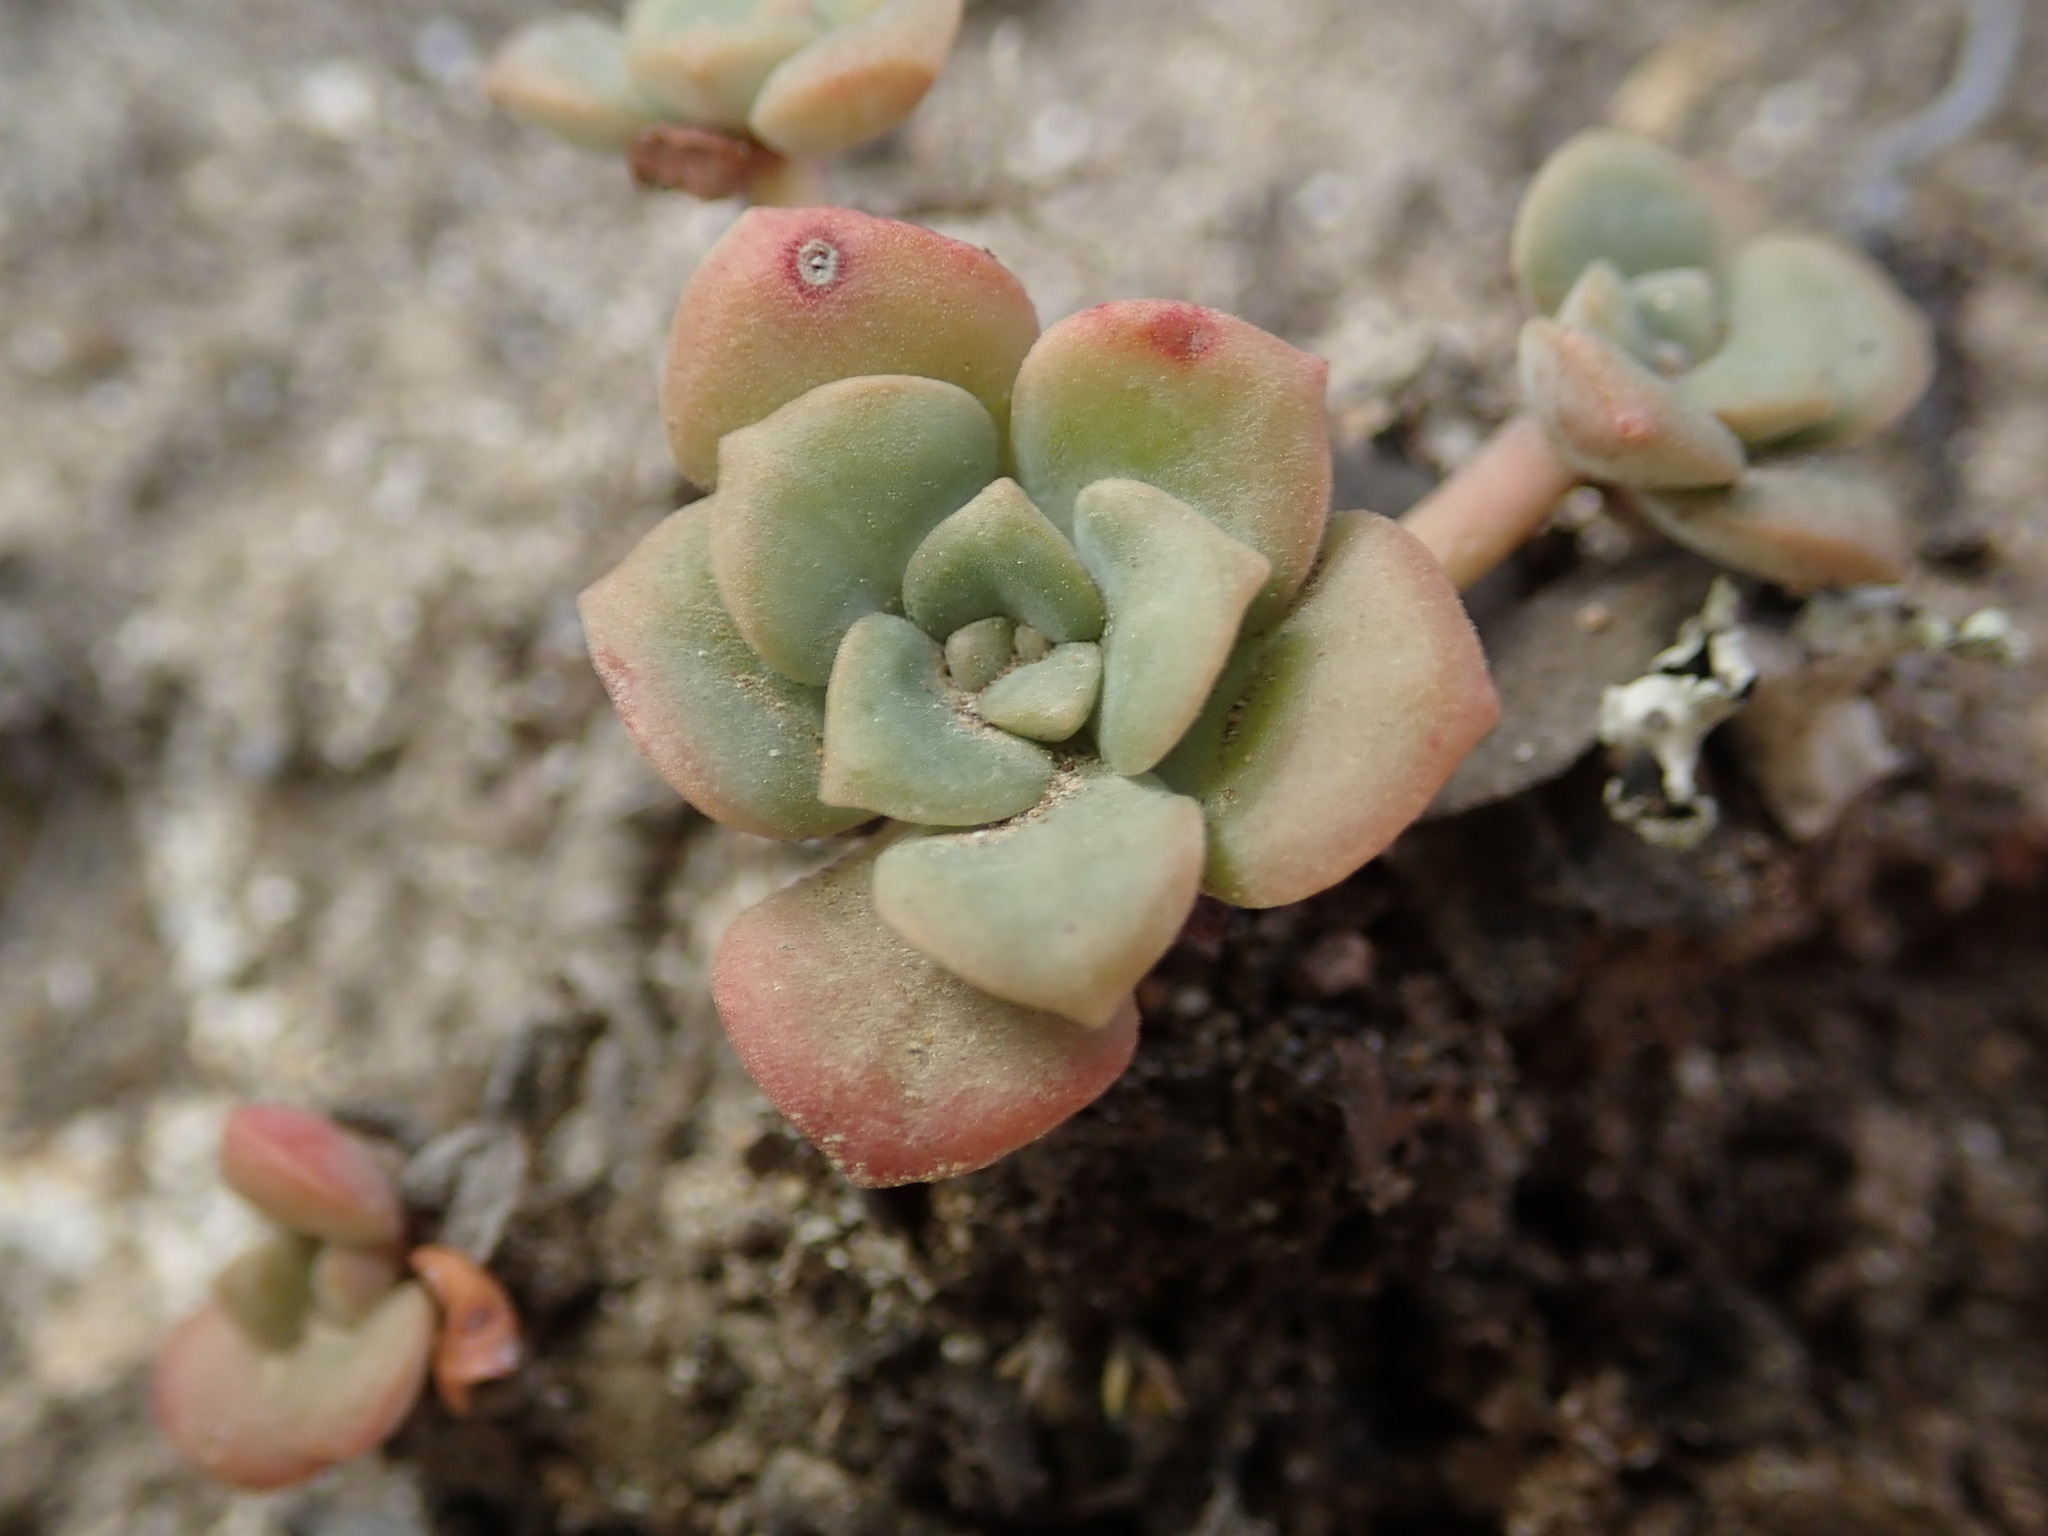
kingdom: Plantae
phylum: Tracheophyta
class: Magnoliopsida
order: Saxifragales
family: Crassulaceae
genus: Sedum
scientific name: Sedum spathulifolium
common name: Colorado stonecrop
